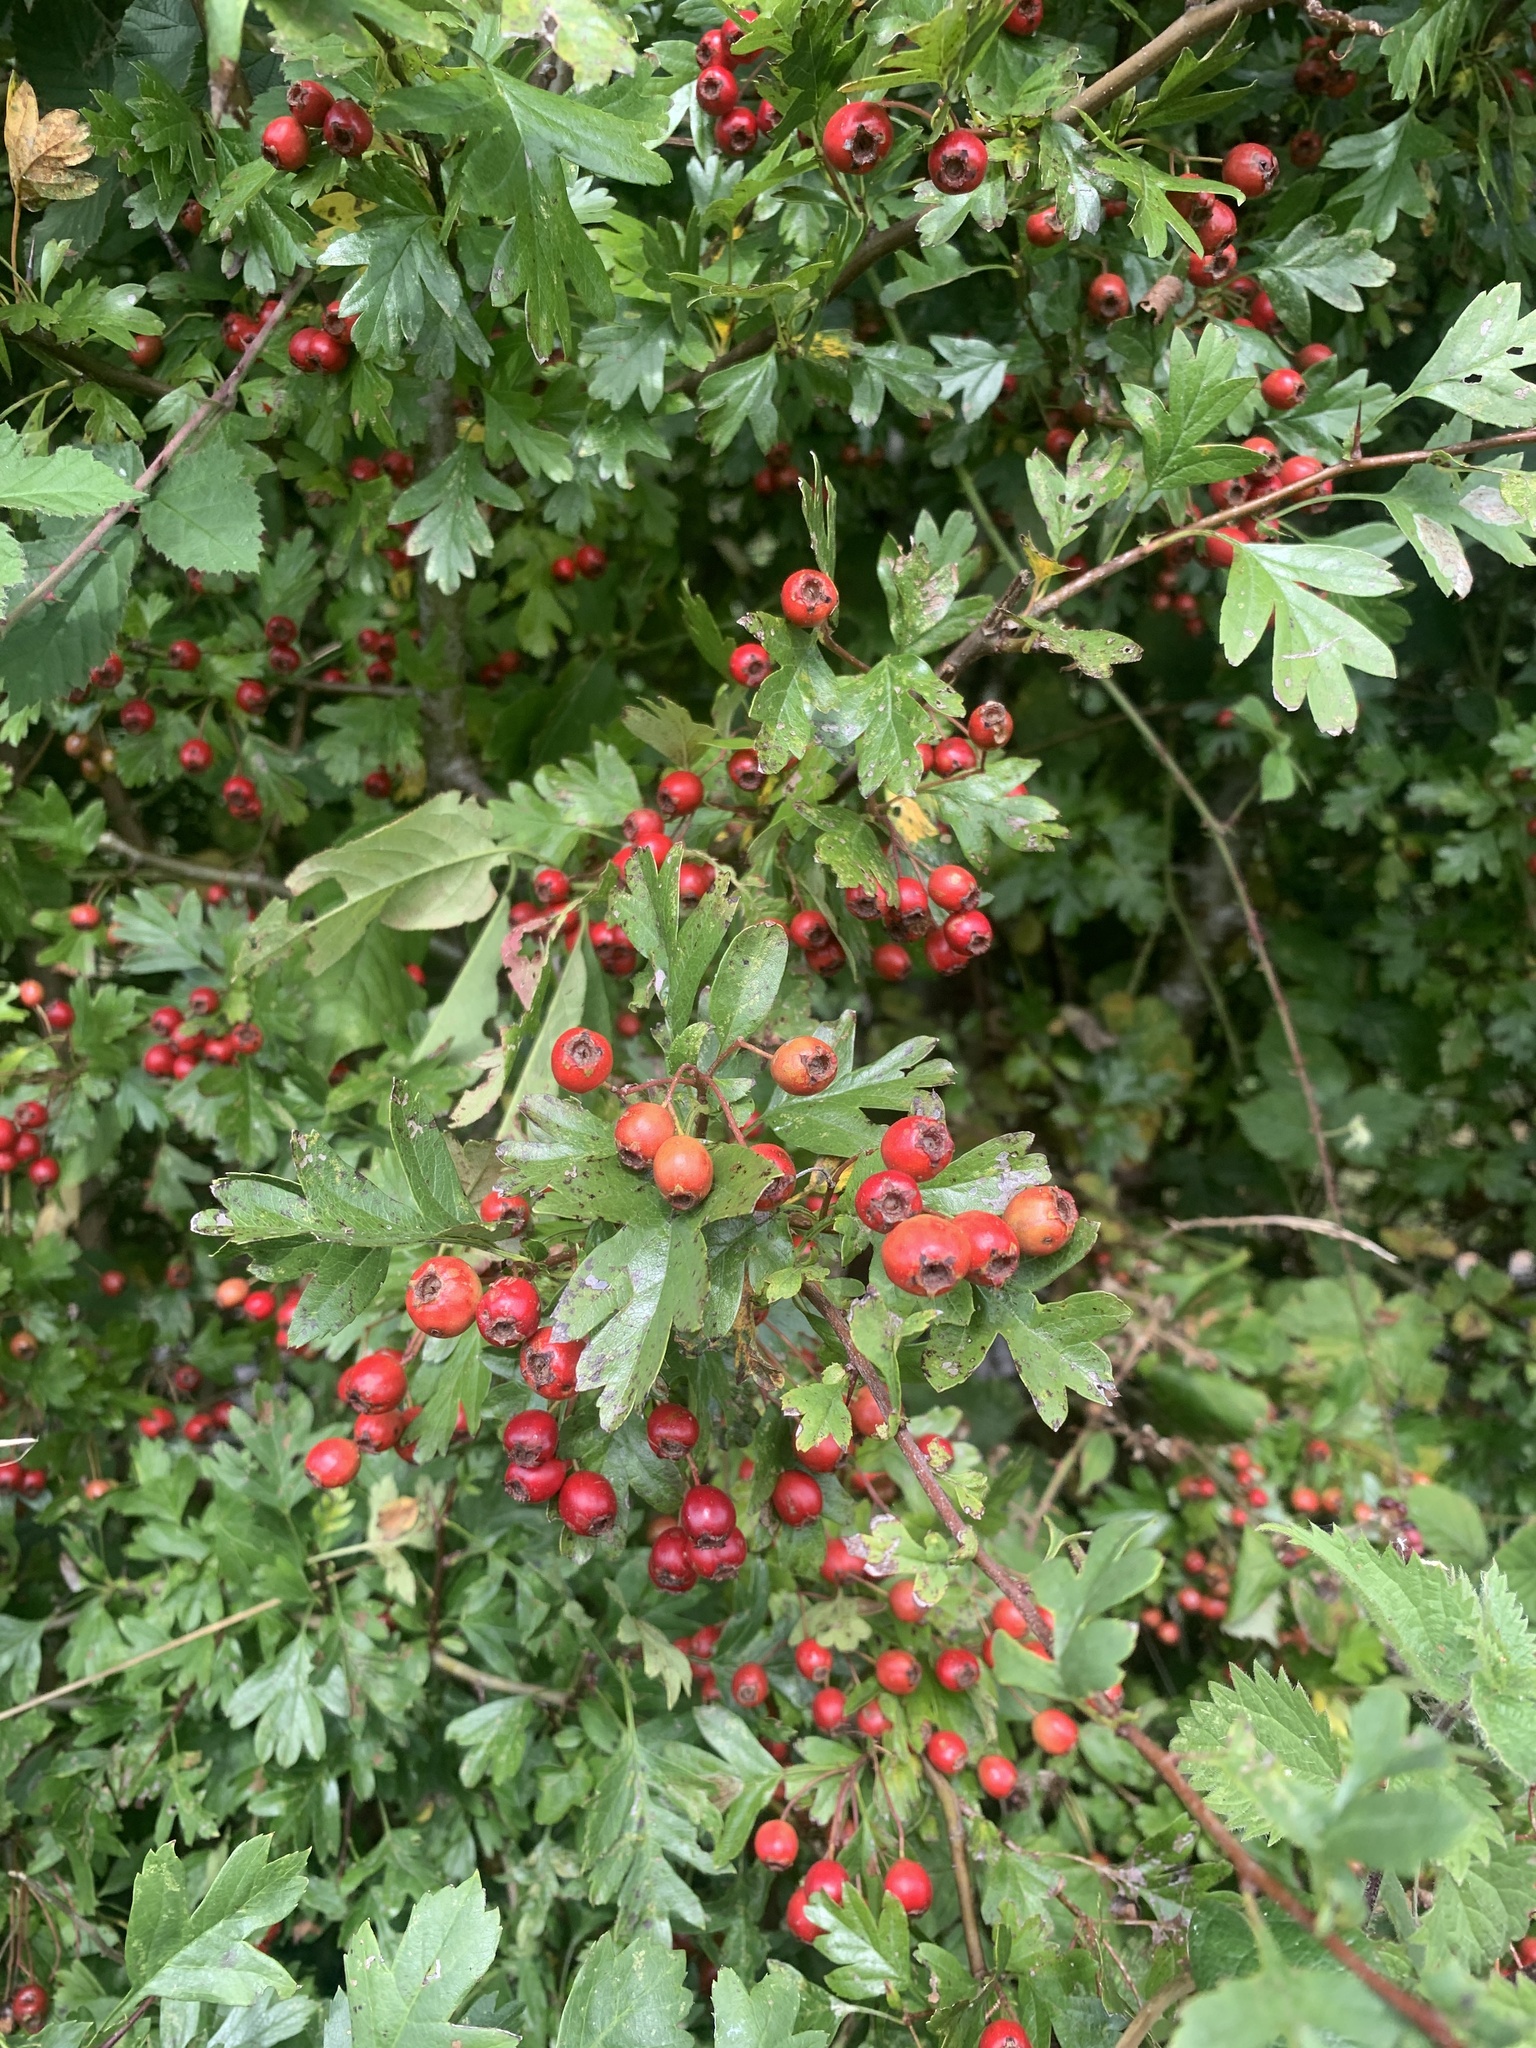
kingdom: Plantae
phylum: Tracheophyta
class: Magnoliopsida
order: Rosales
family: Rosaceae
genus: Crataegus
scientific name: Crataegus monogyna
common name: Hawthorn
